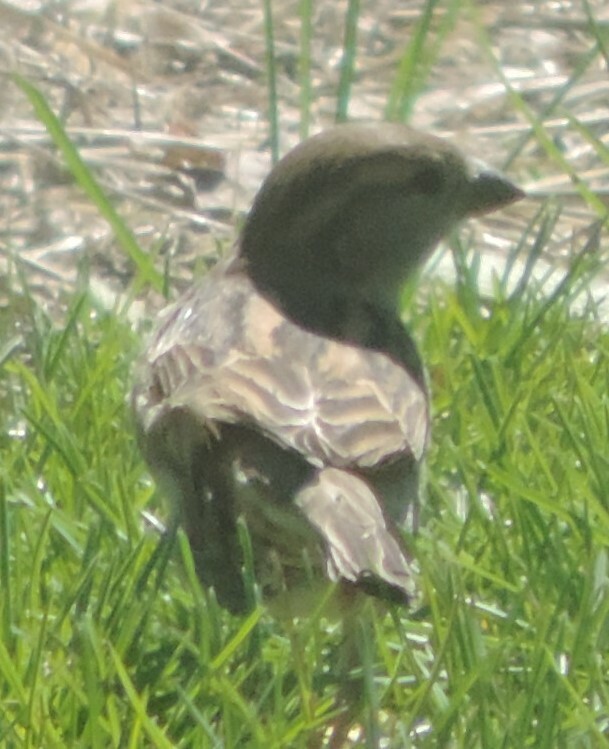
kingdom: Animalia
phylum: Chordata
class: Aves
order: Passeriformes
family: Passeridae
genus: Passer
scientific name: Passer domesticus
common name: House sparrow
